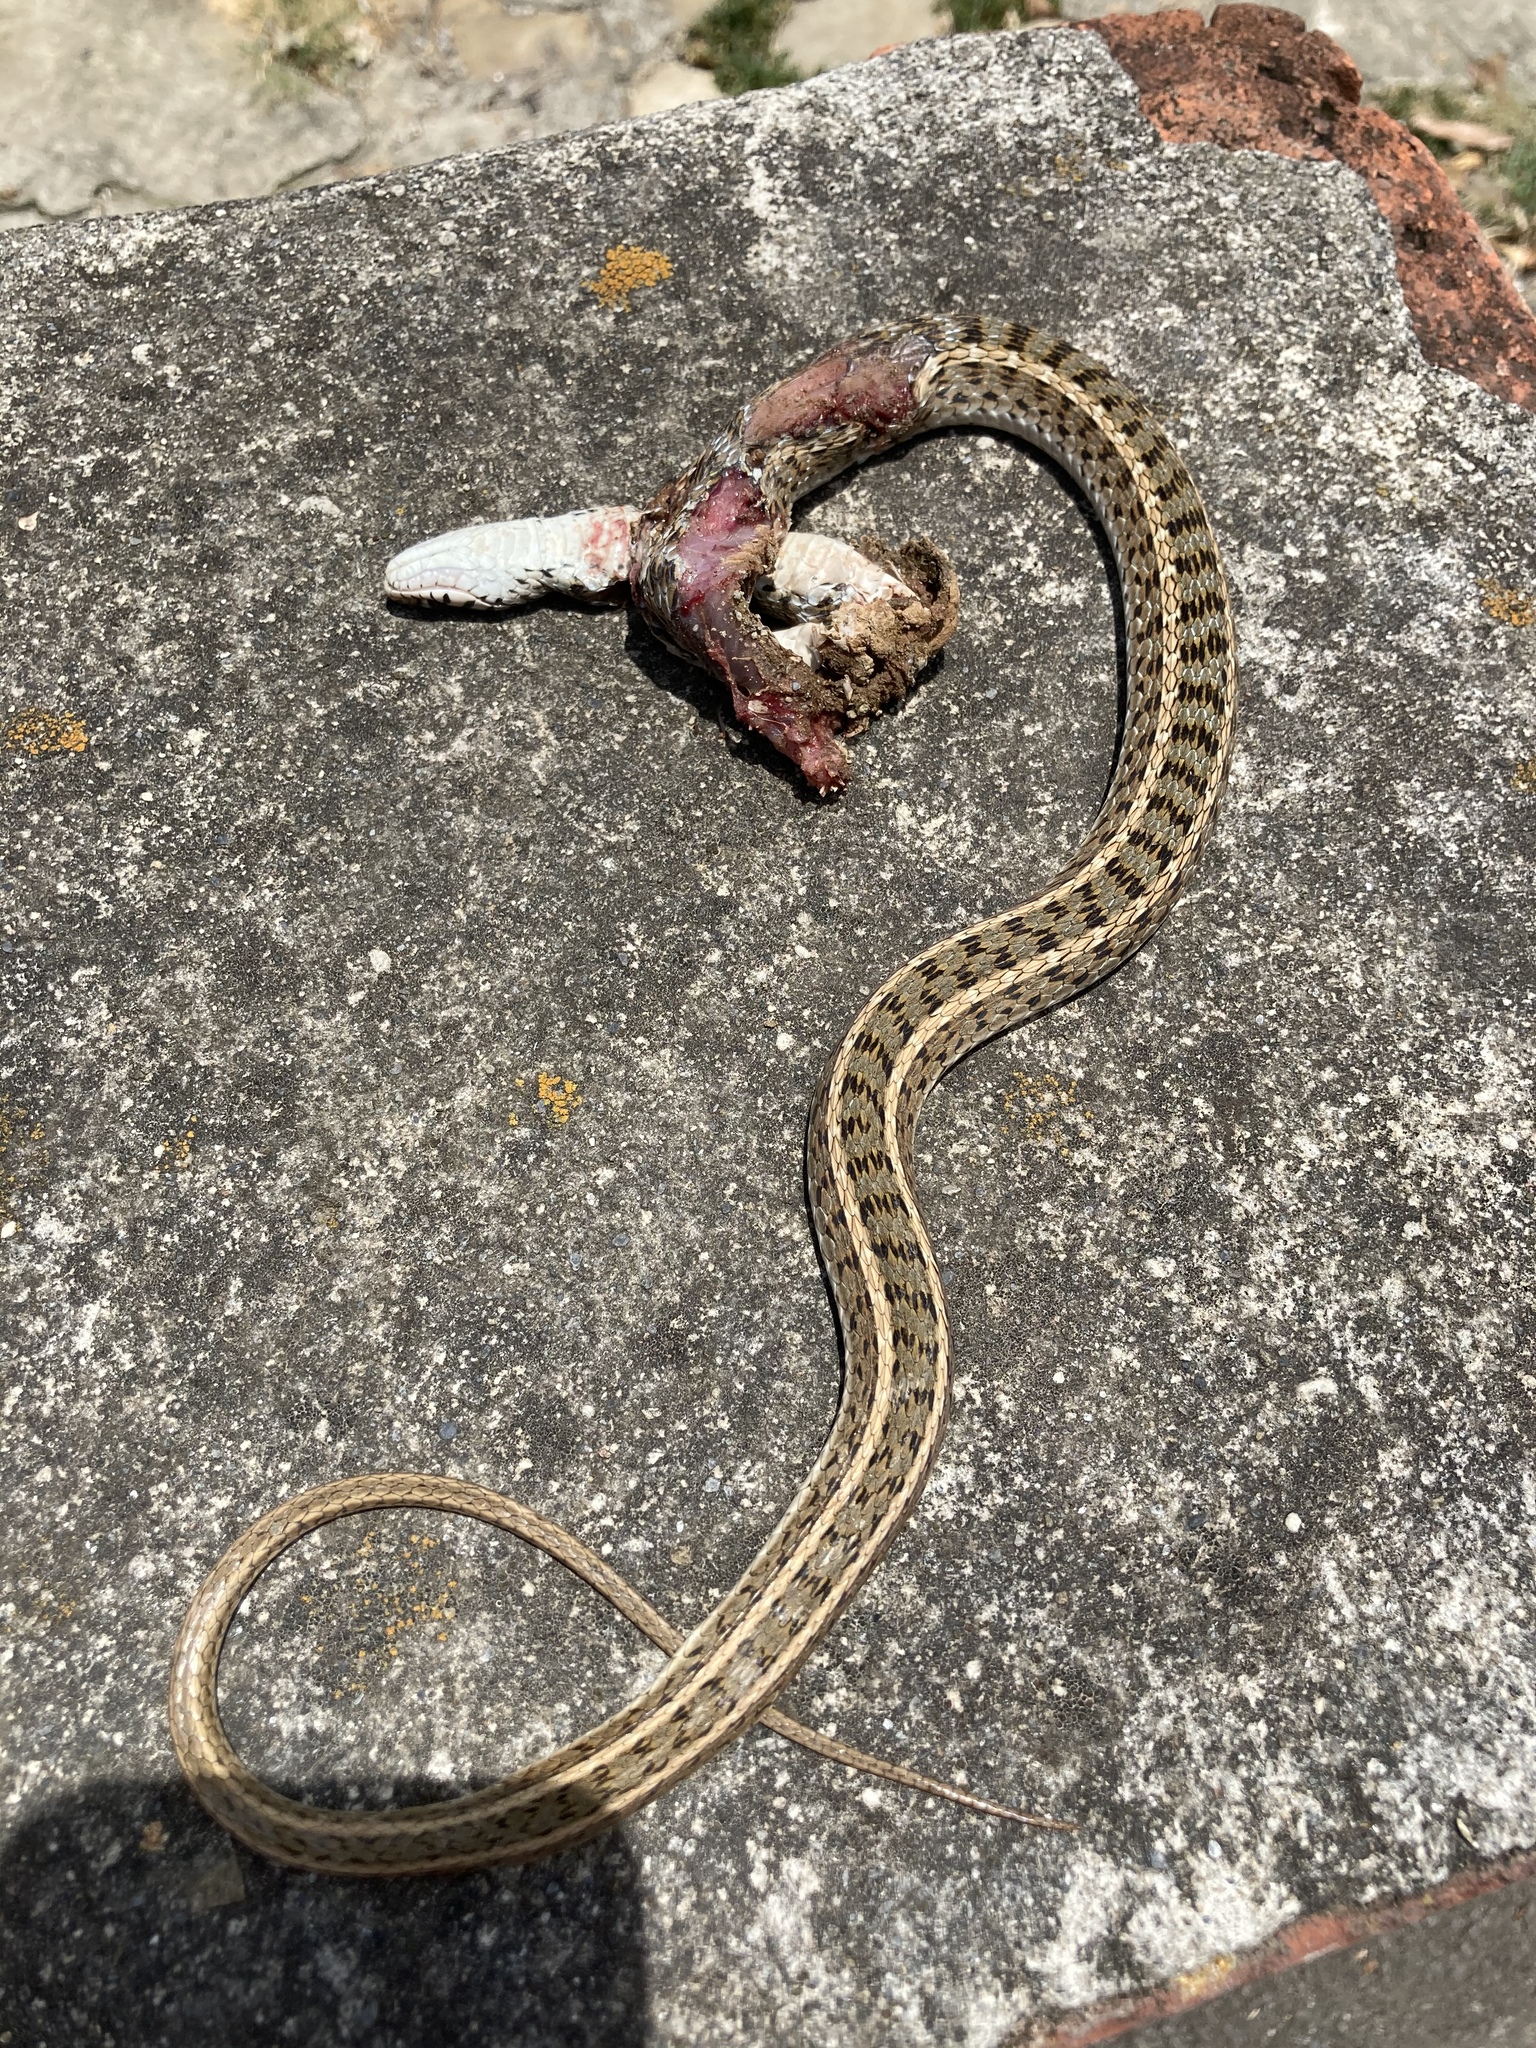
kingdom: Animalia
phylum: Chordata
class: Squamata
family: Colubridae
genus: Amphiesma
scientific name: Amphiesma stolatum
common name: Buff striped keelback
